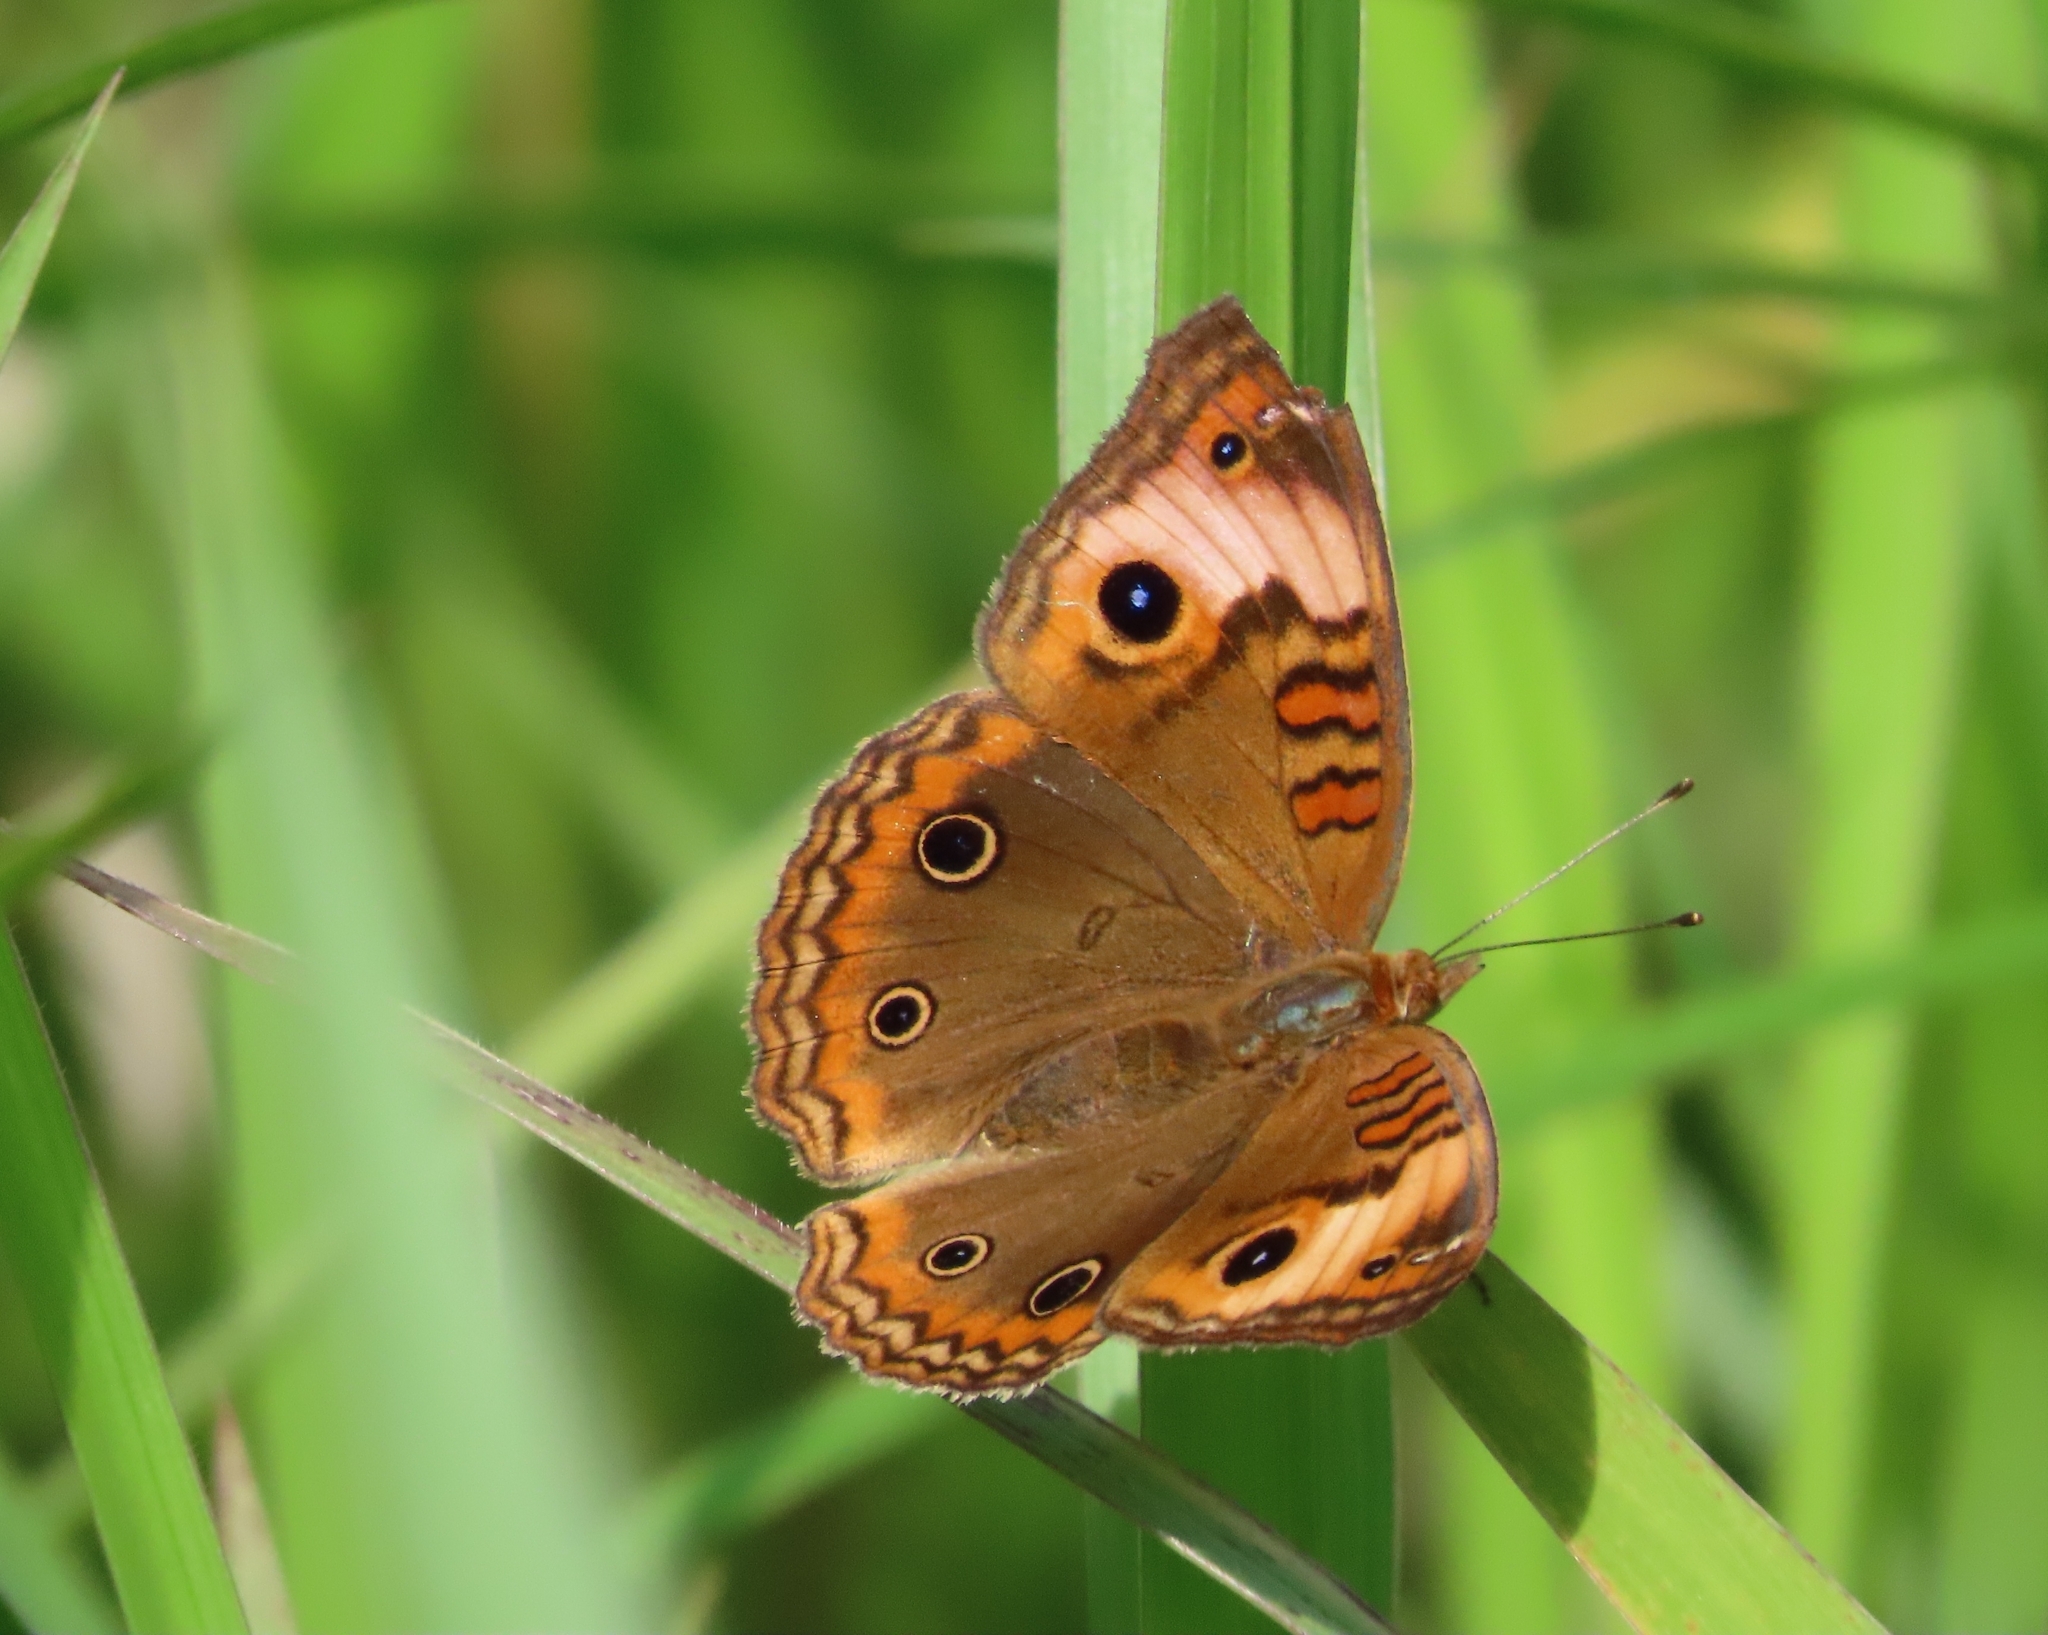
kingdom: Animalia
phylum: Arthropoda
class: Insecta
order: Lepidoptera
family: Nymphalidae
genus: Junonia
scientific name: Junonia lavinia
